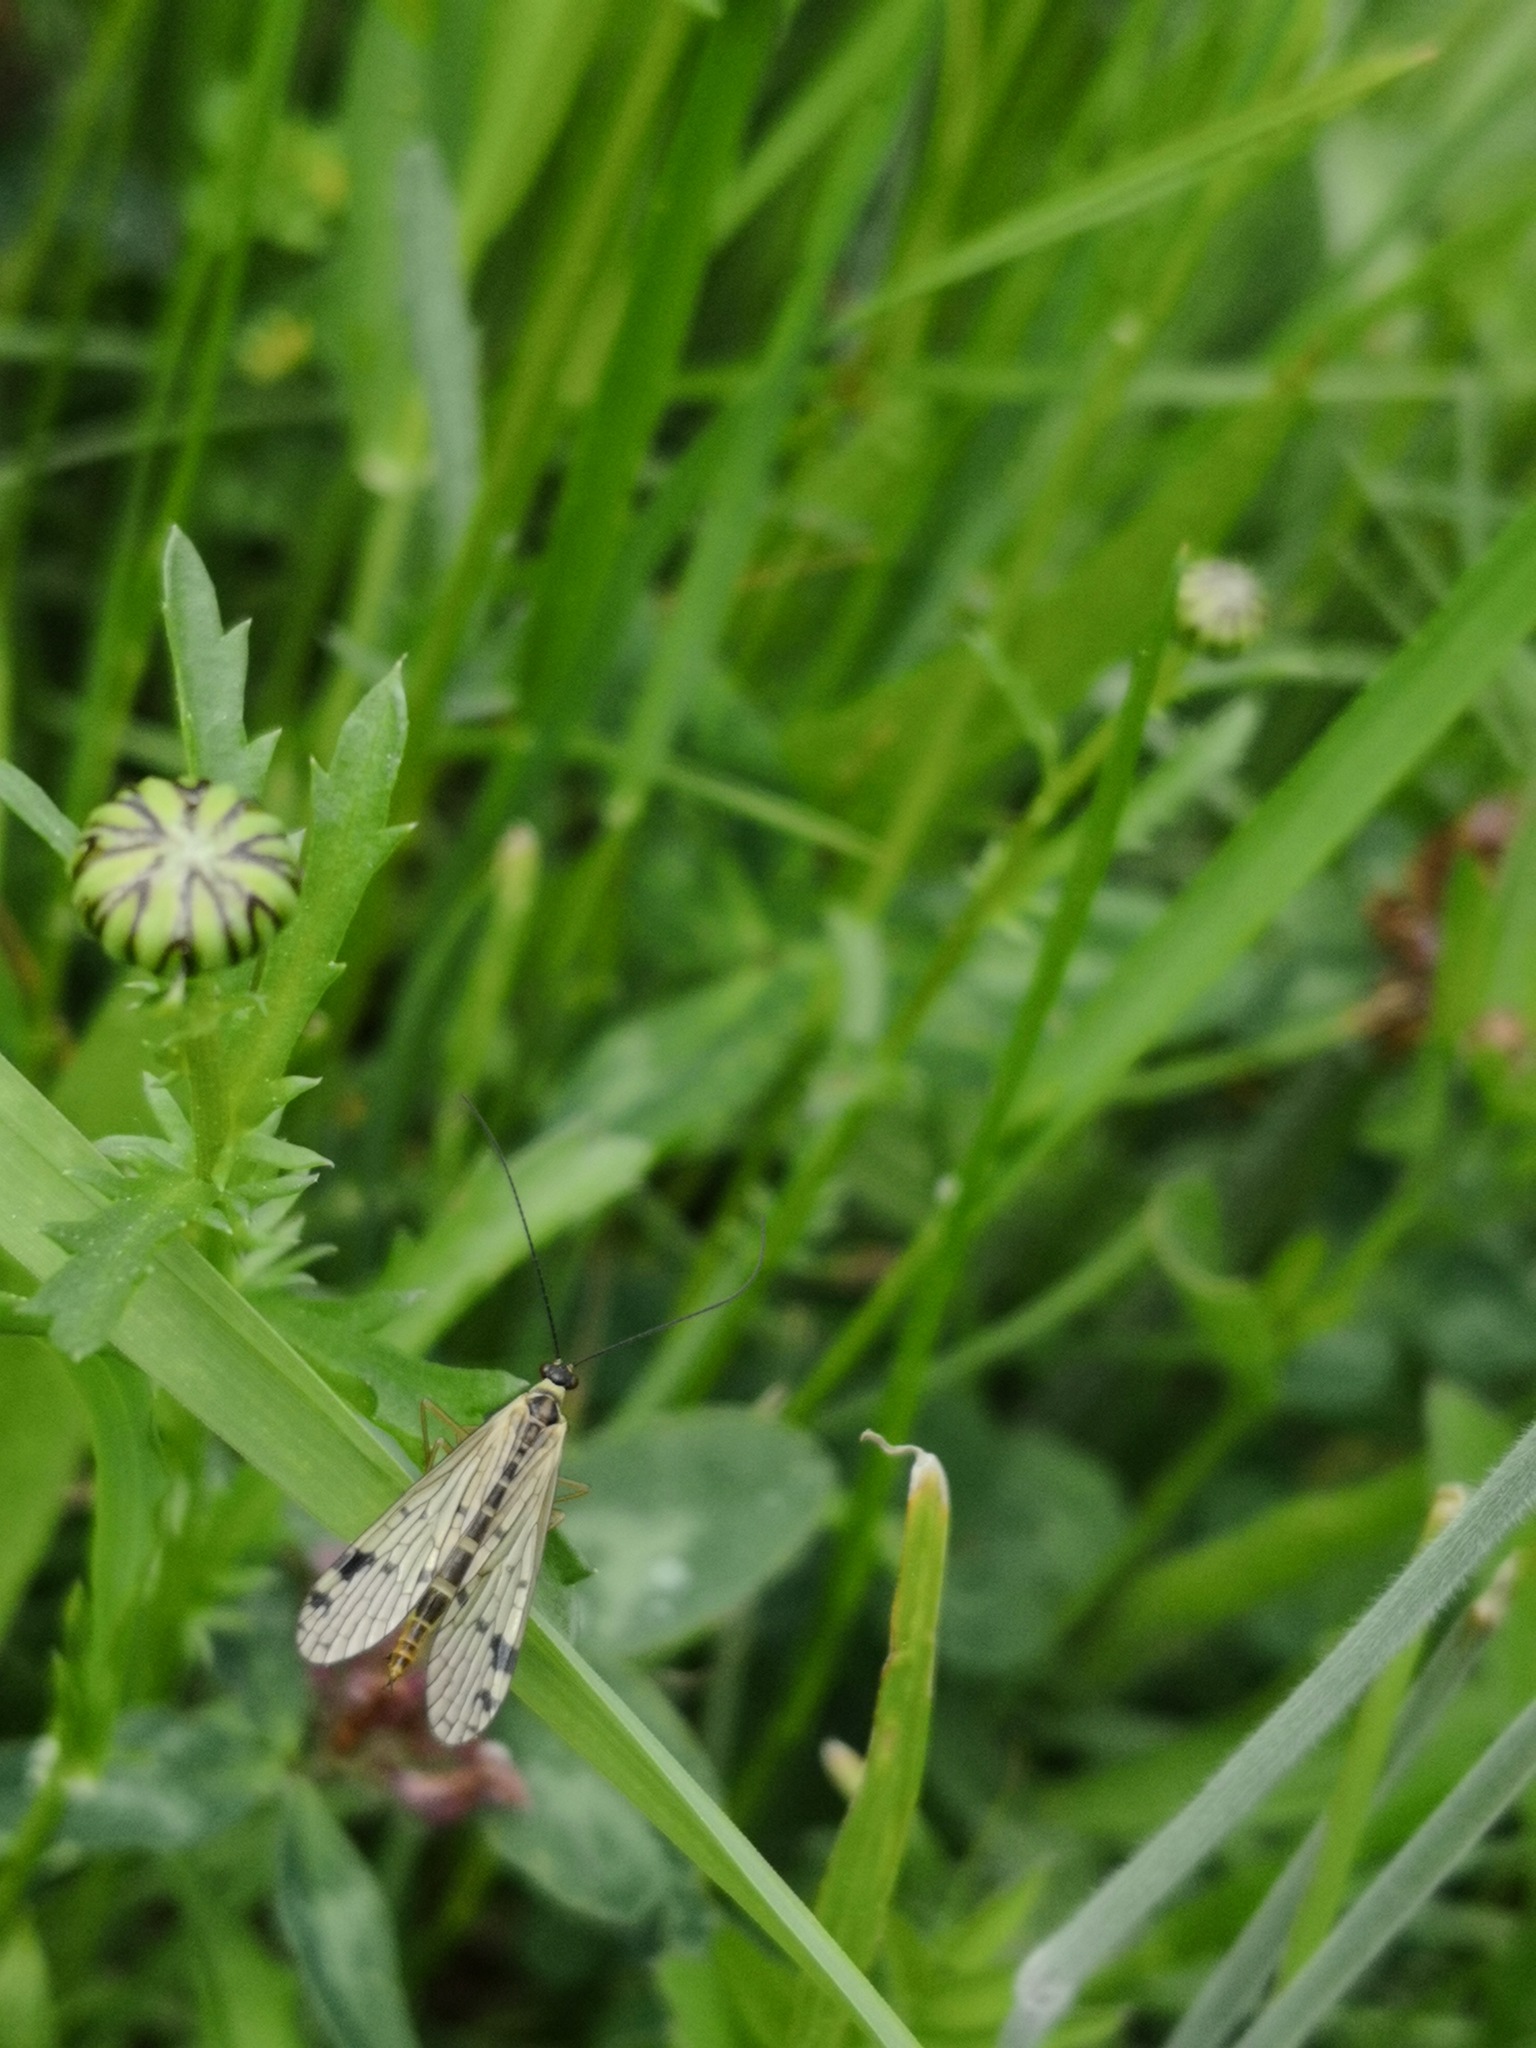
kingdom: Animalia
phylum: Arthropoda
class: Insecta
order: Mecoptera
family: Panorpidae
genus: Panorpa
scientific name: Panorpa alpina
